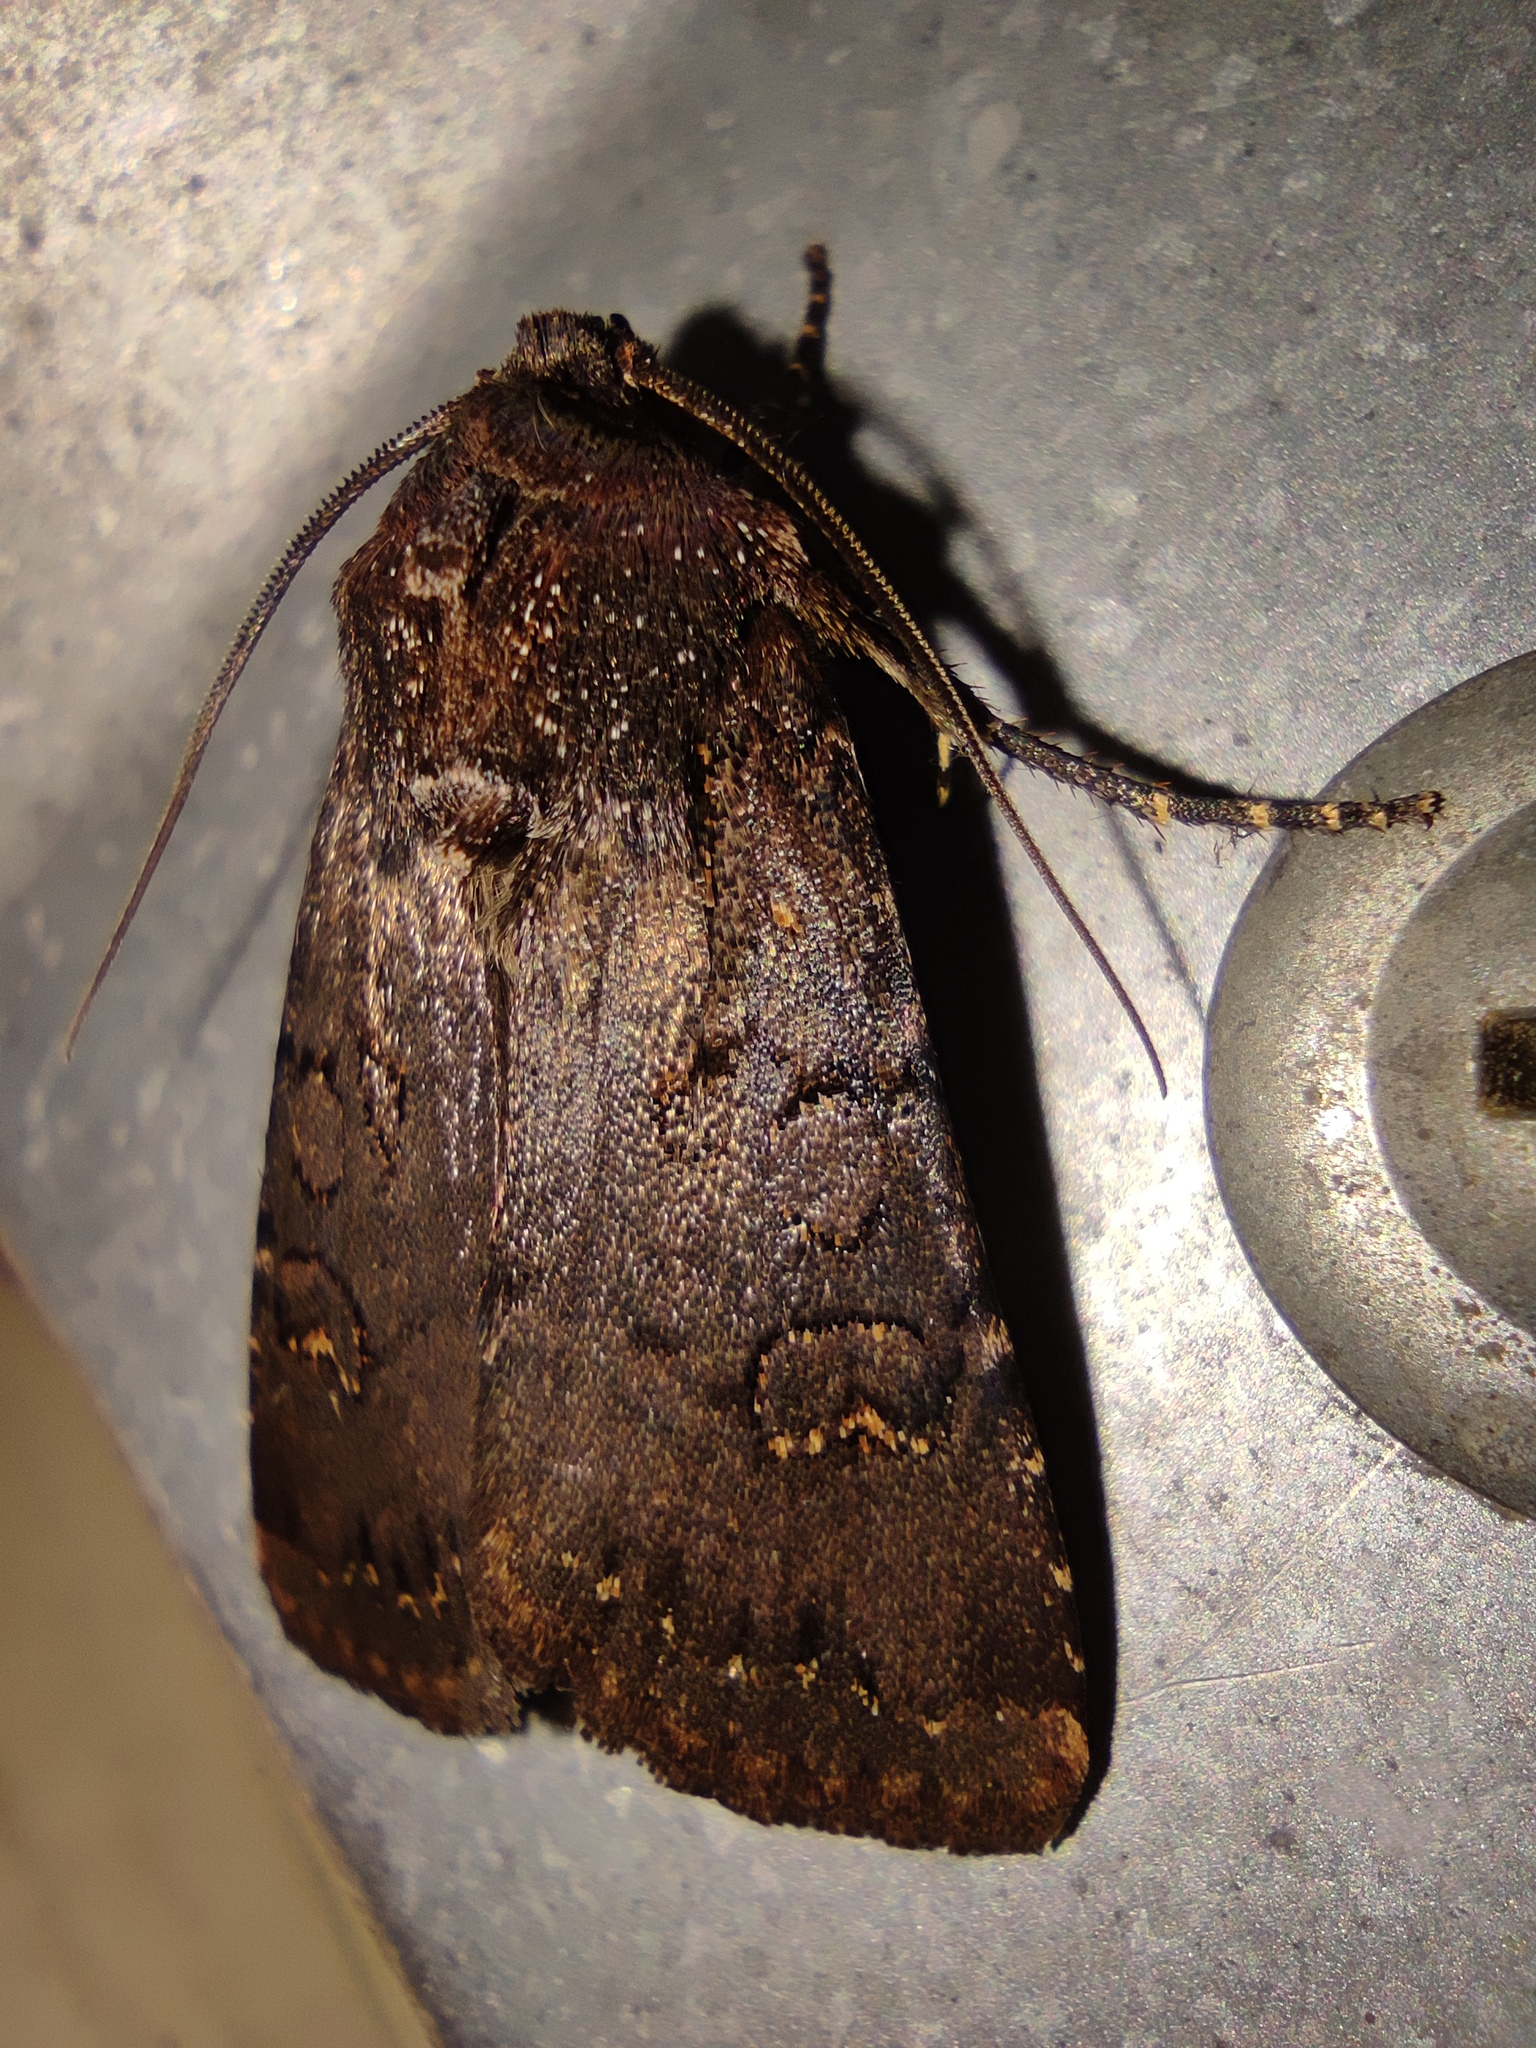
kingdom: Animalia
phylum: Arthropoda
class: Insecta
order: Lepidoptera
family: Noctuidae
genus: Euxoa
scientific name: Euxoa nigricans
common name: Garden dart
